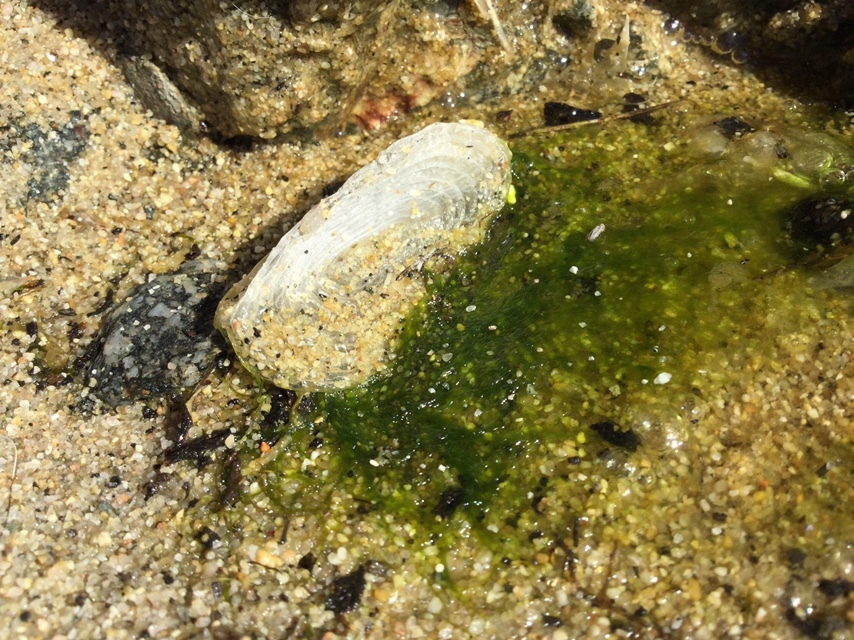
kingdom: Animalia
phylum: Cnidaria
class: Hydrozoa
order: Anthoathecata
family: Porpitidae
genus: Velella
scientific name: Velella velella
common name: By-the-wind-sailor
